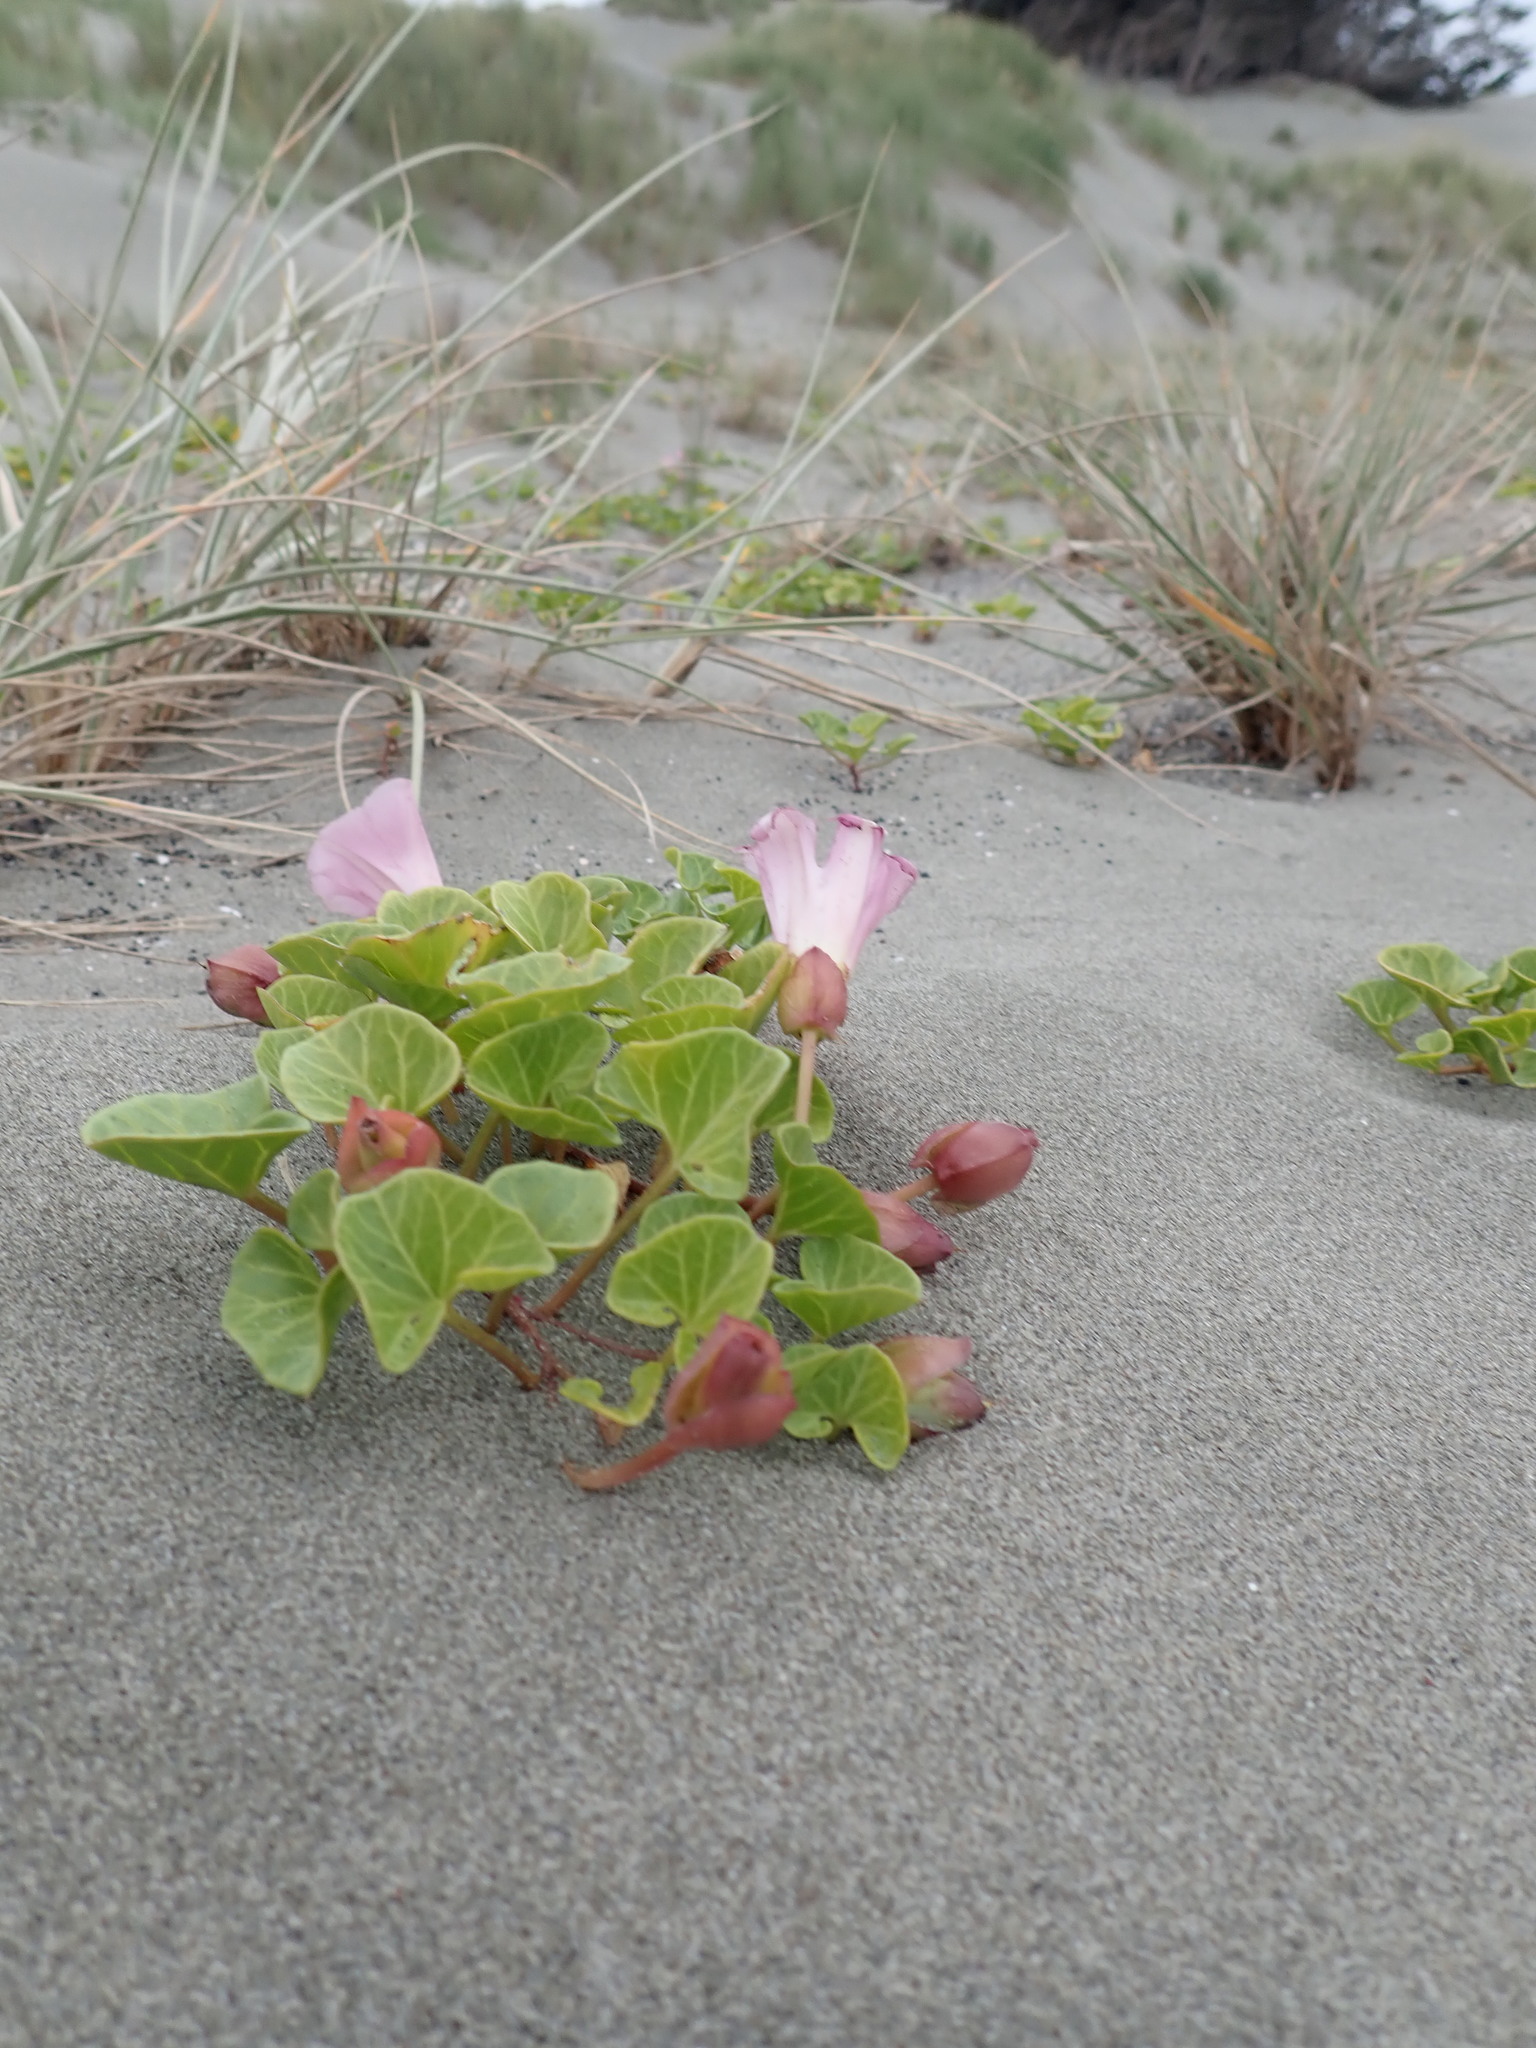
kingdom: Plantae
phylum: Tracheophyta
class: Magnoliopsida
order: Solanales
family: Convolvulaceae
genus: Calystegia
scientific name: Calystegia soldanella
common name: Sea bindweed
